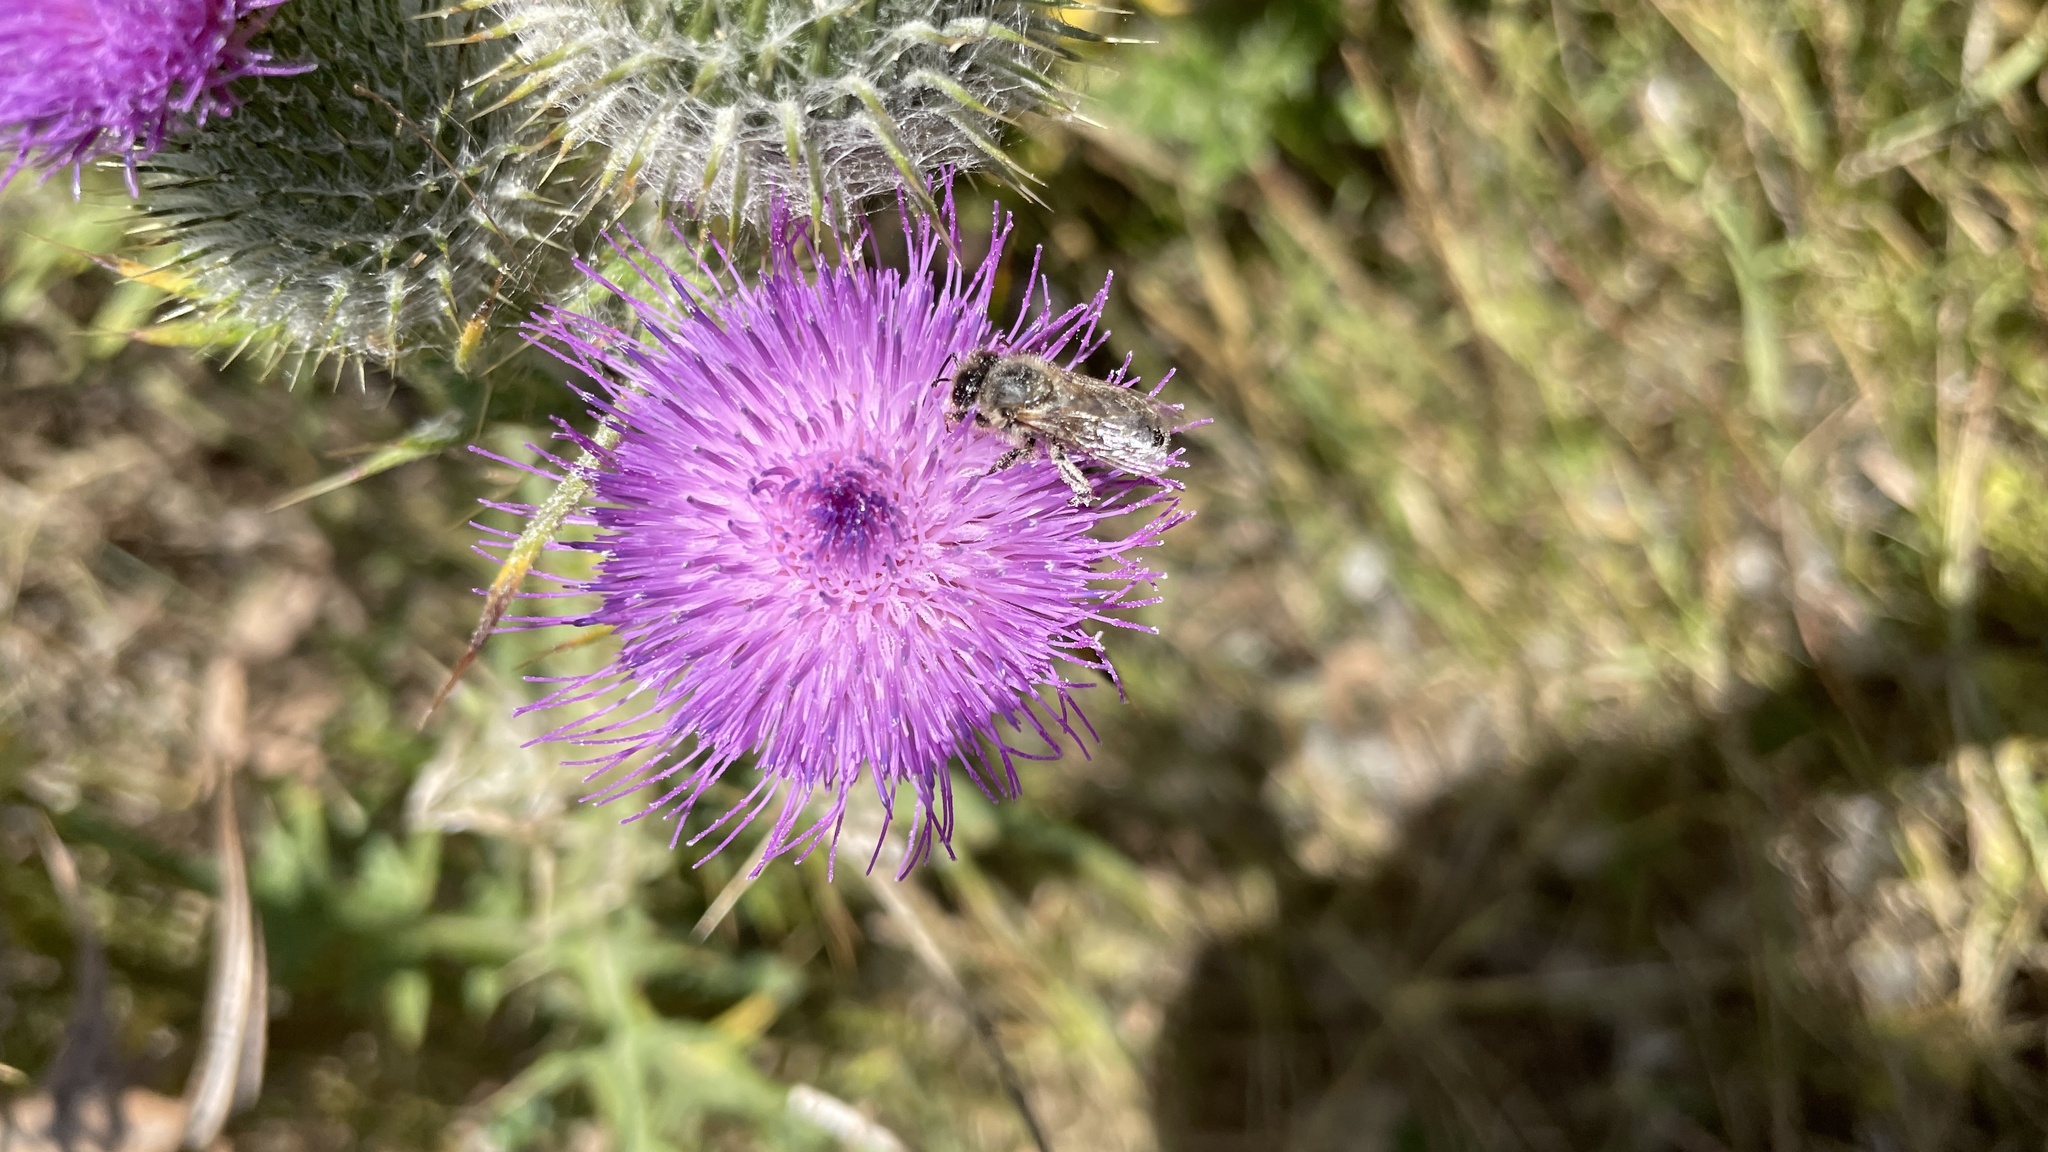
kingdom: Animalia
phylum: Arthropoda
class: Insecta
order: Hymenoptera
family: Apidae
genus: Apis
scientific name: Apis mellifera
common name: Honey bee
